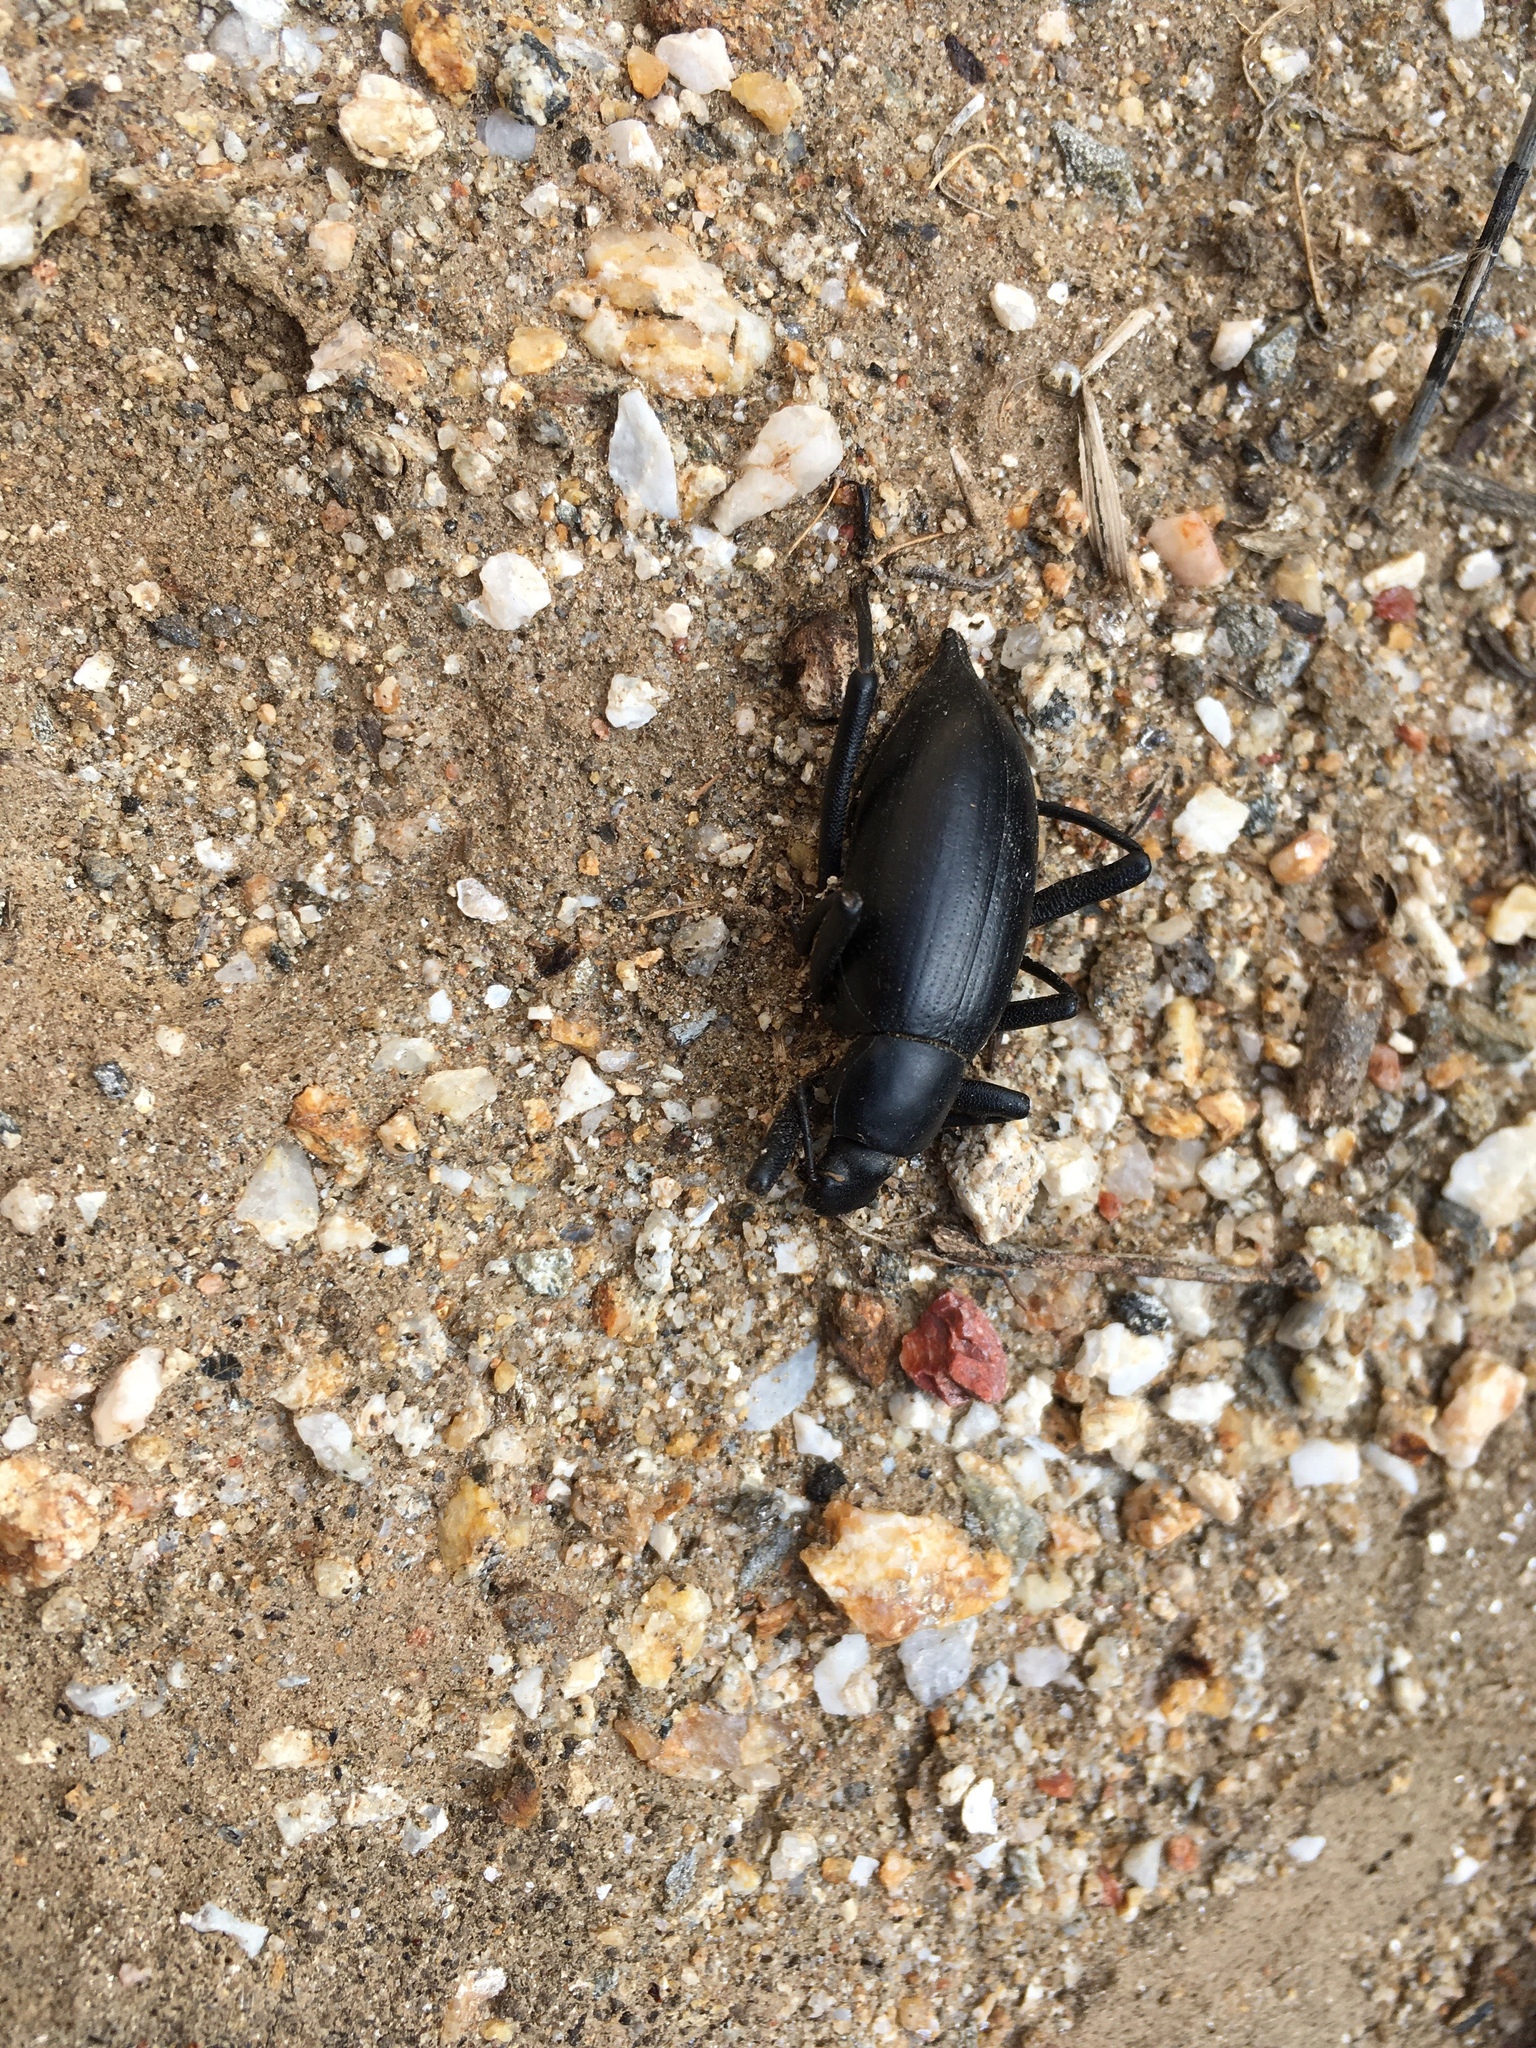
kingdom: Animalia
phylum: Arthropoda
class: Insecta
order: Coleoptera
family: Tenebrionidae
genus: Eleodes
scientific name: Eleodes mexicana
